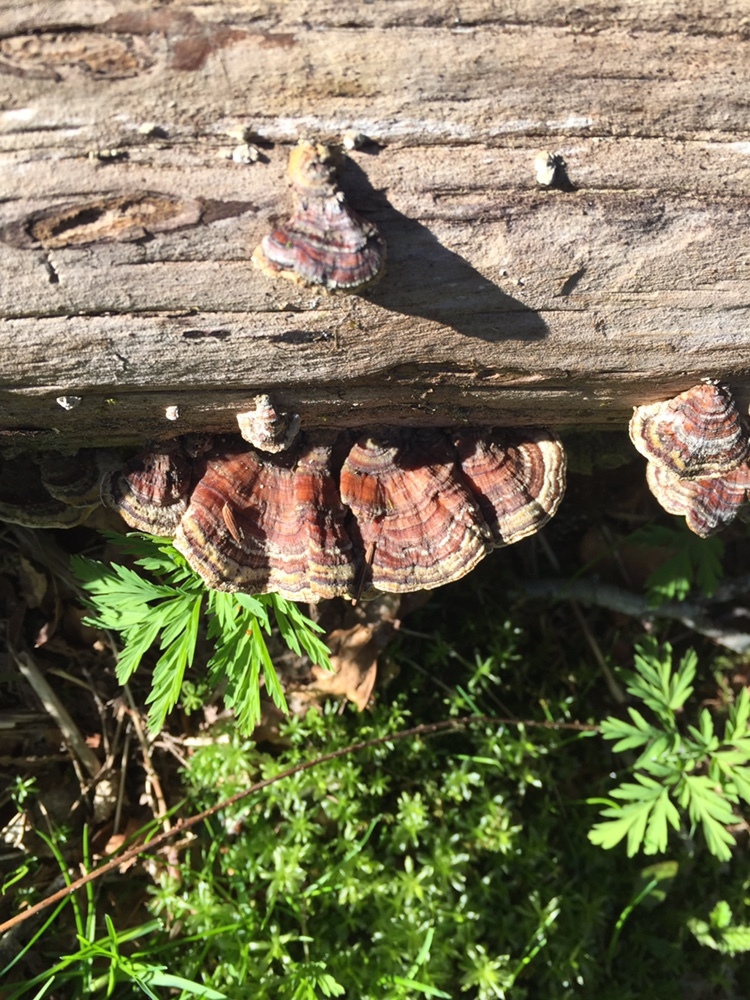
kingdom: Fungi
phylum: Basidiomycota
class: Agaricomycetes
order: Polyporales
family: Polyporaceae
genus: Trametes
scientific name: Trametes versicolor
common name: Turkeytail
